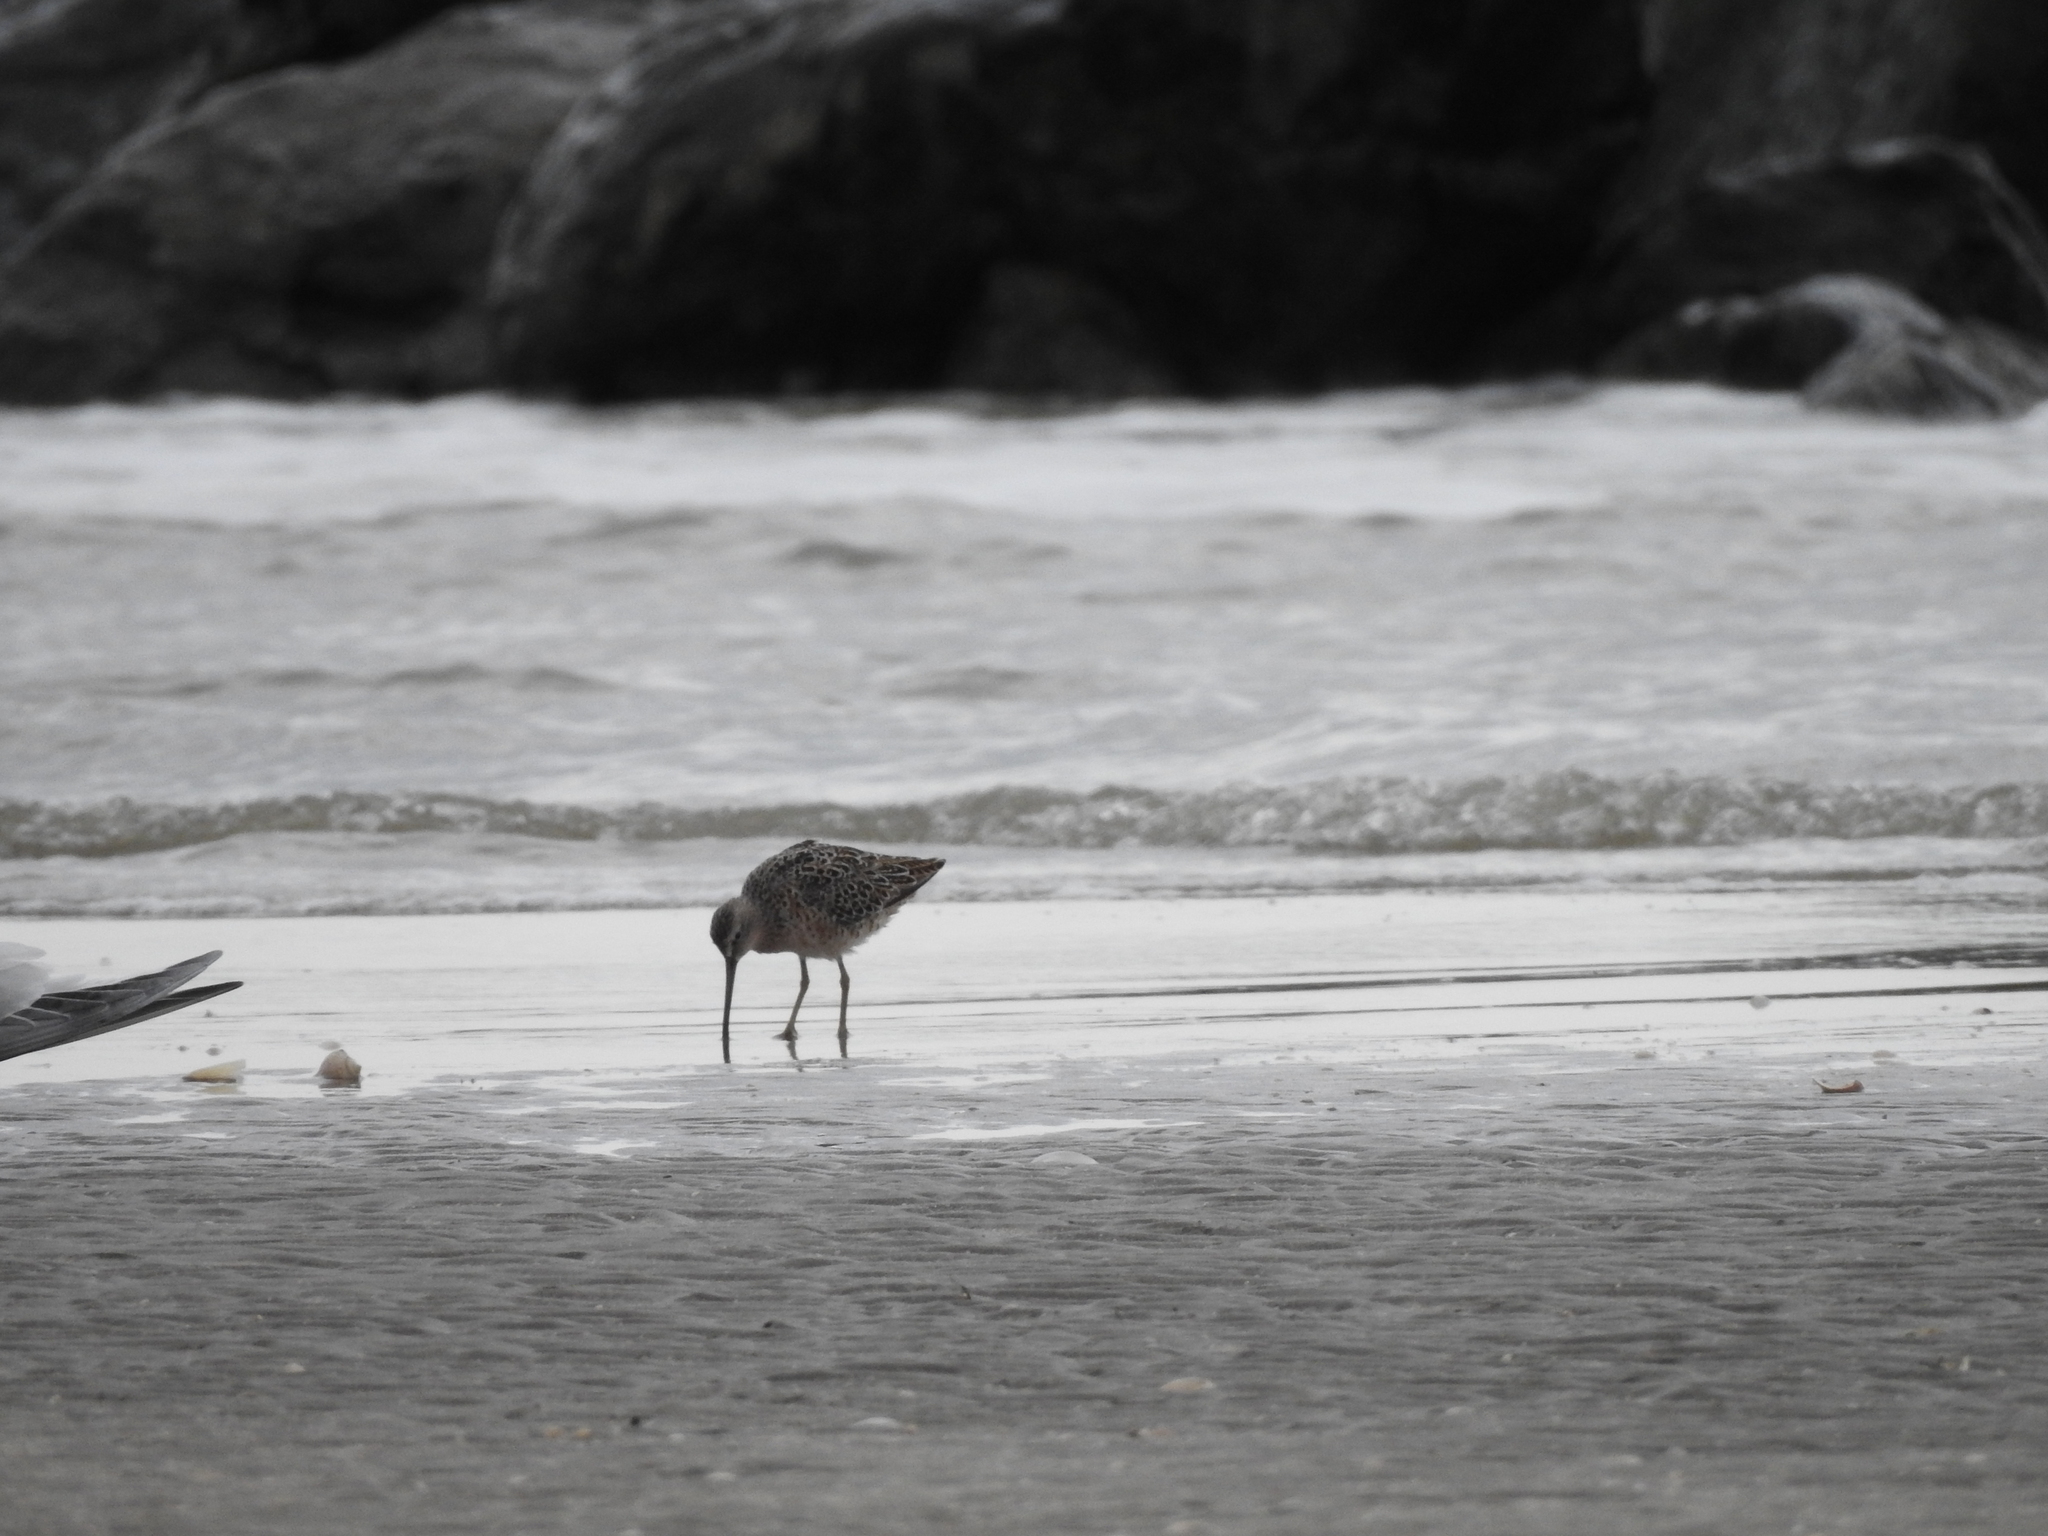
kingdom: Animalia
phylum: Chordata
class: Aves
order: Charadriiformes
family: Scolopacidae
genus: Limnodromus
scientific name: Limnodromus griseus
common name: Short-billed dowitcher
